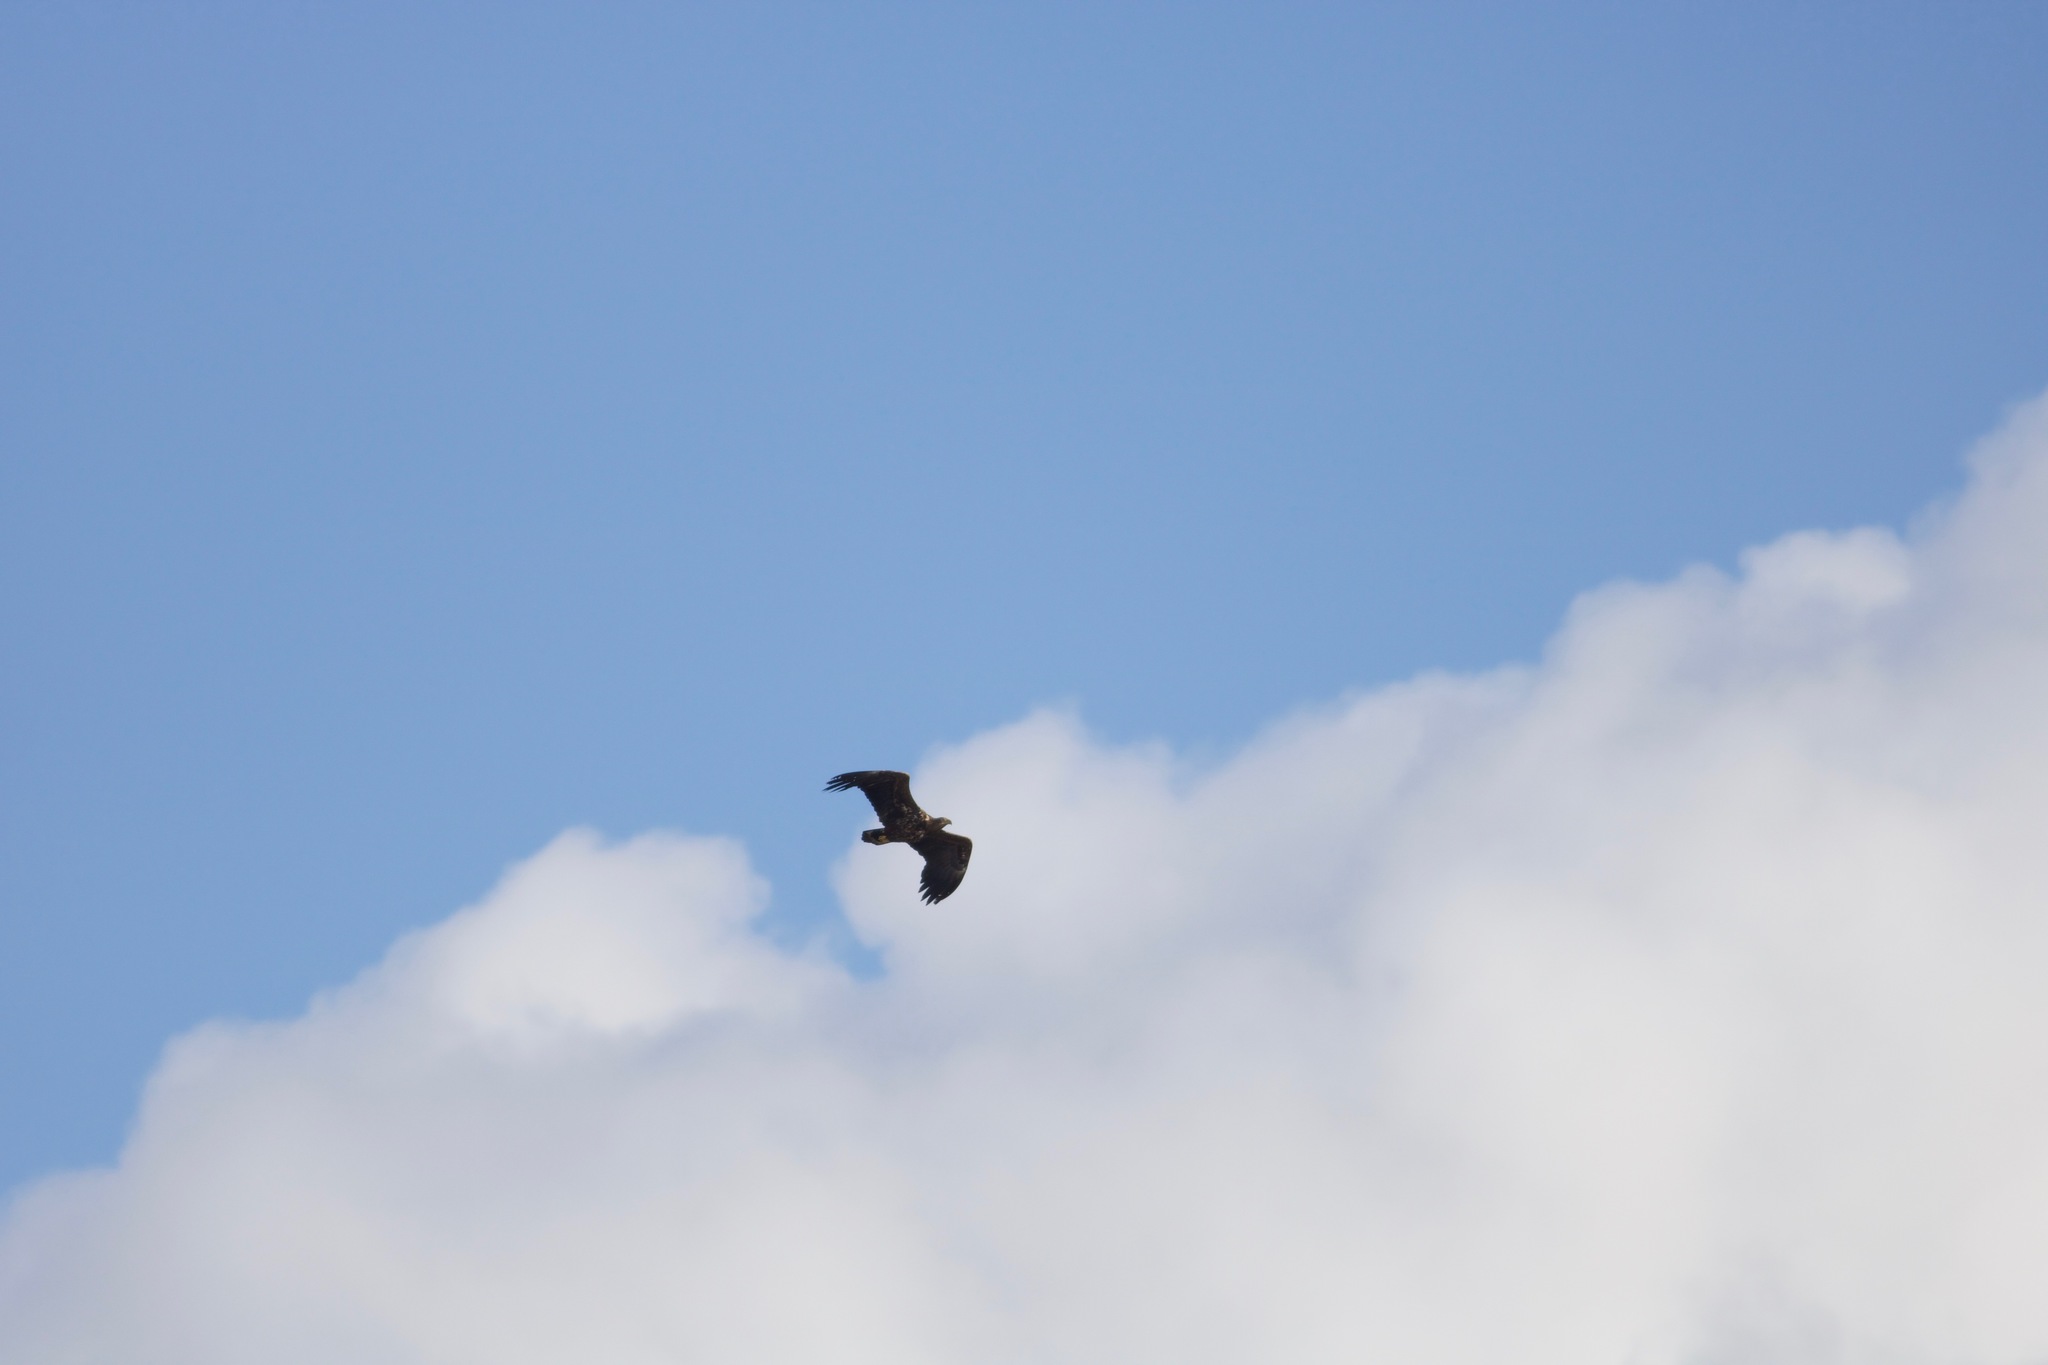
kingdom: Animalia
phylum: Chordata
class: Aves
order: Accipitriformes
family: Accipitridae
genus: Haliaeetus
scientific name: Haliaeetus albicilla
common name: White-tailed eagle
